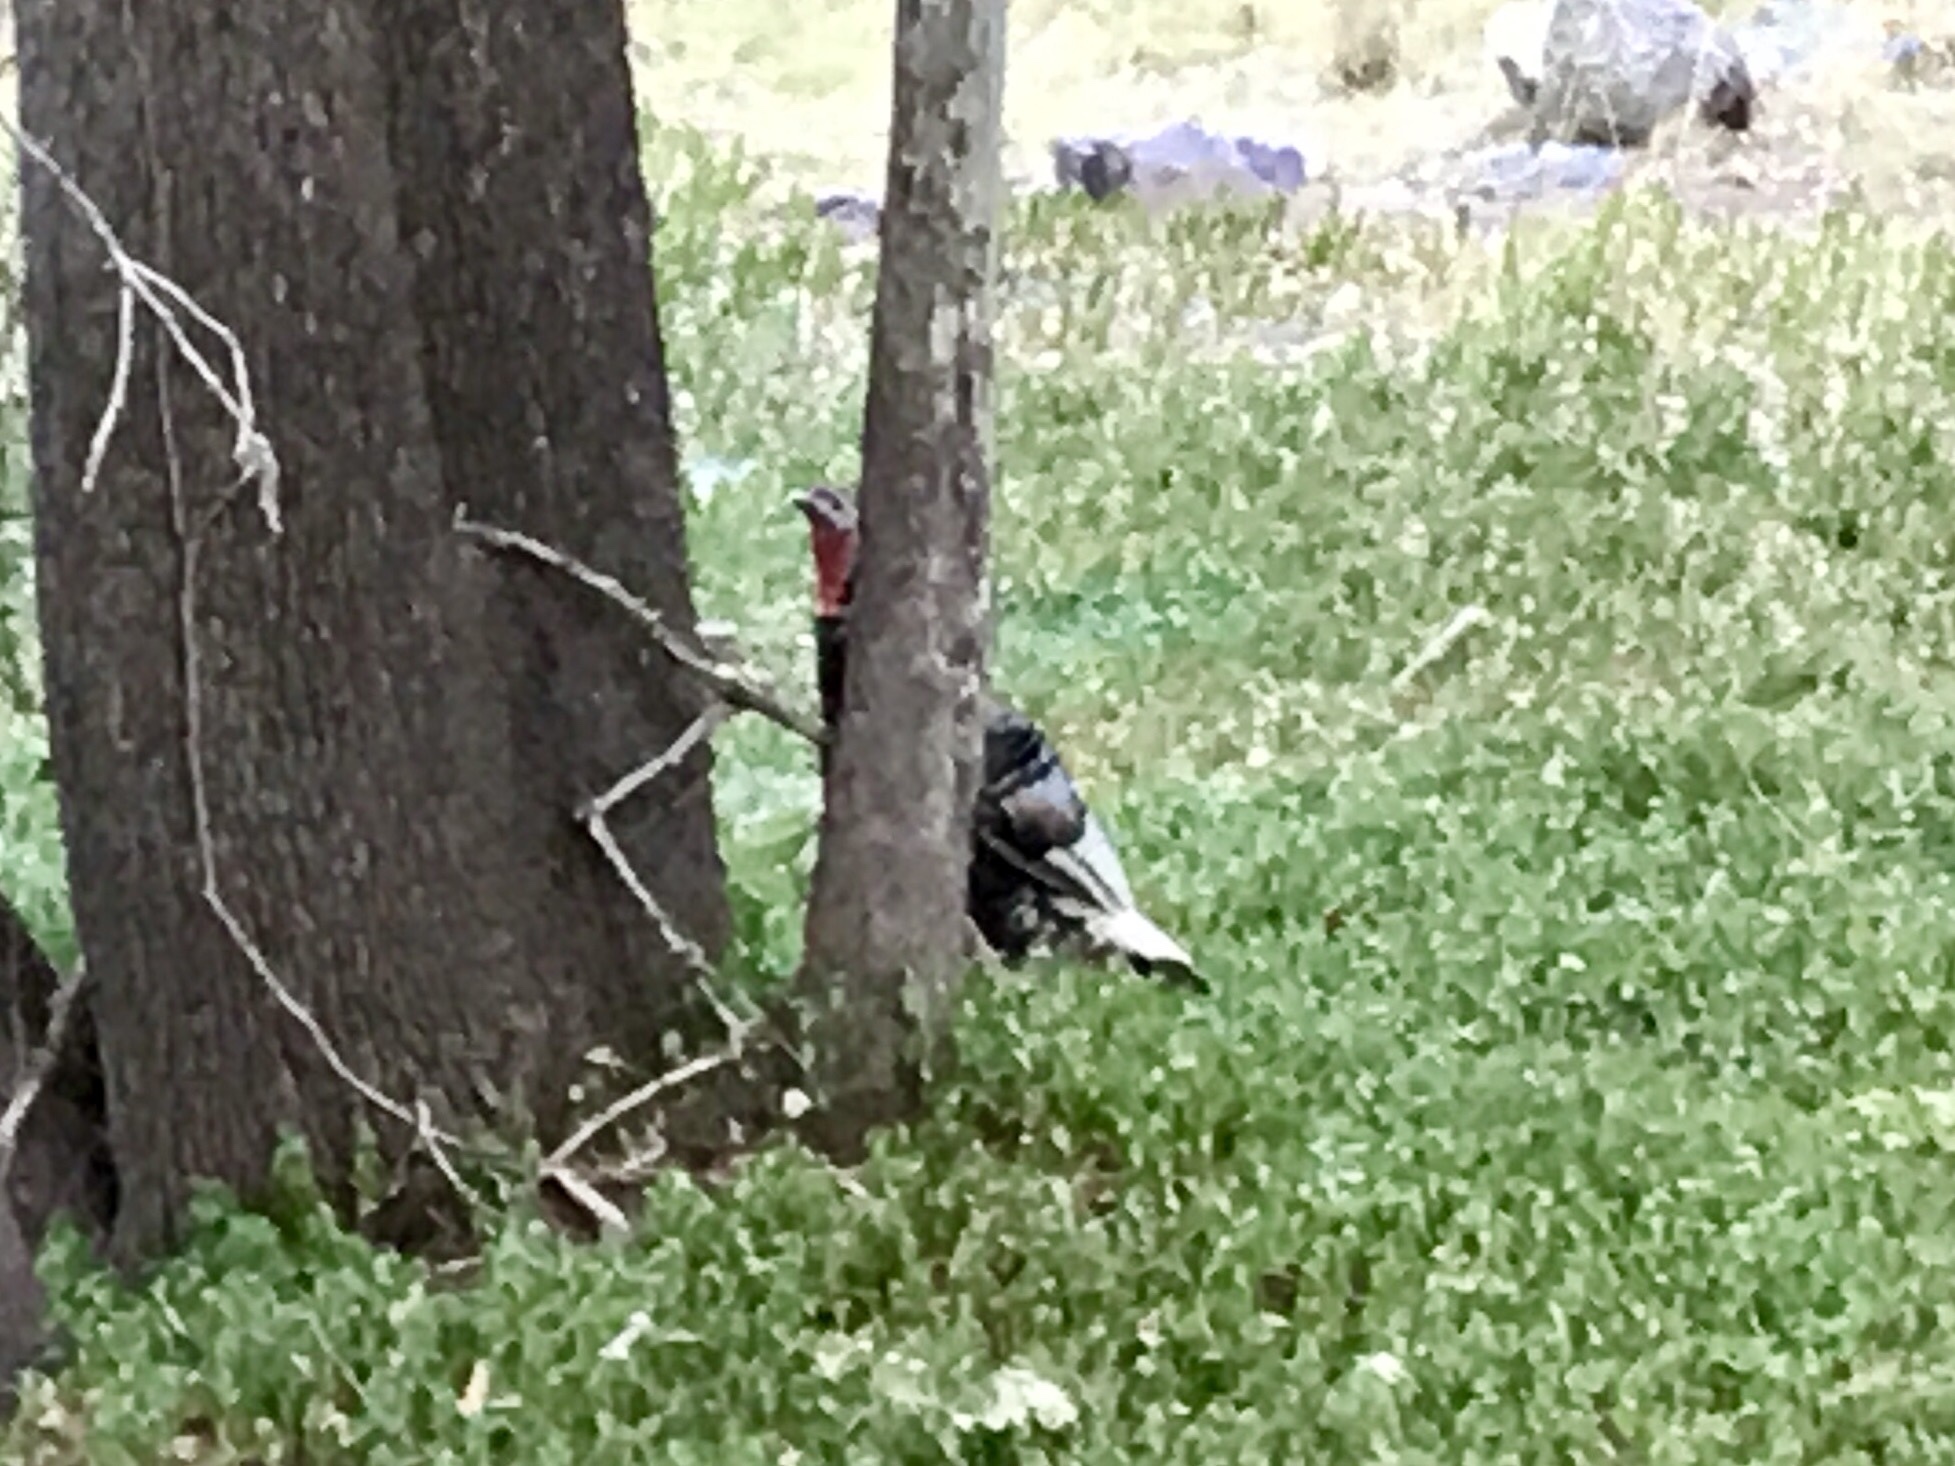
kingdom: Animalia
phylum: Chordata
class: Aves
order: Galliformes
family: Phasianidae
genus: Meleagris
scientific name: Meleagris gallopavo
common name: Wild turkey
